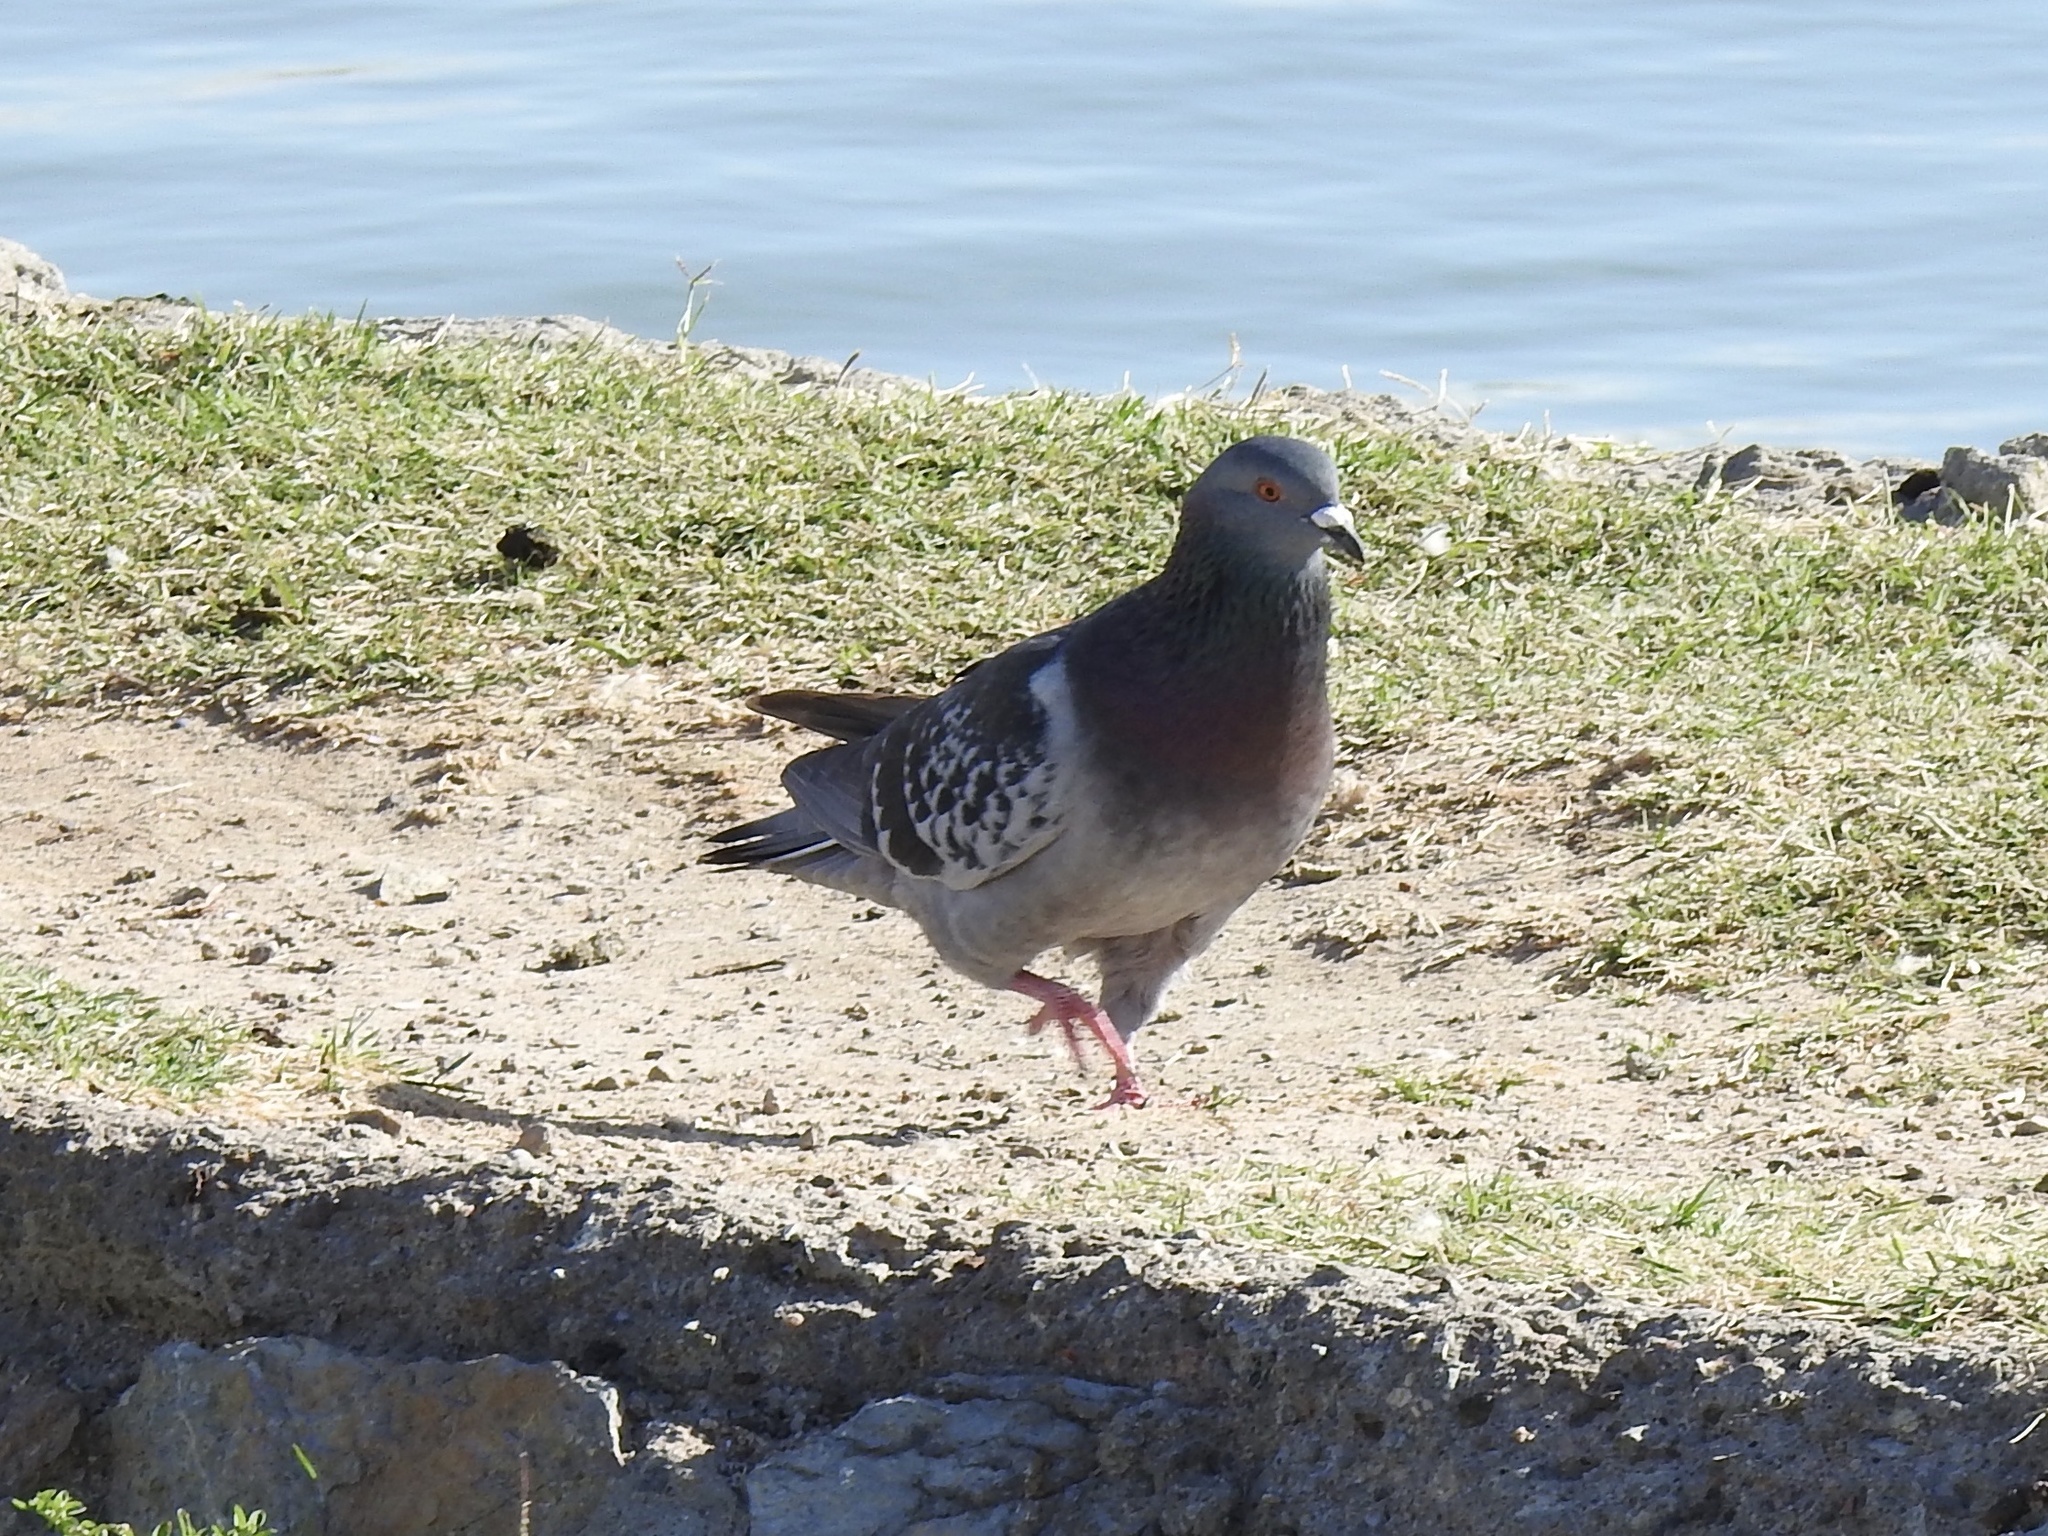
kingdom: Animalia
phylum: Chordata
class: Aves
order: Columbiformes
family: Columbidae
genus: Columba
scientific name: Columba livia
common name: Rock pigeon
